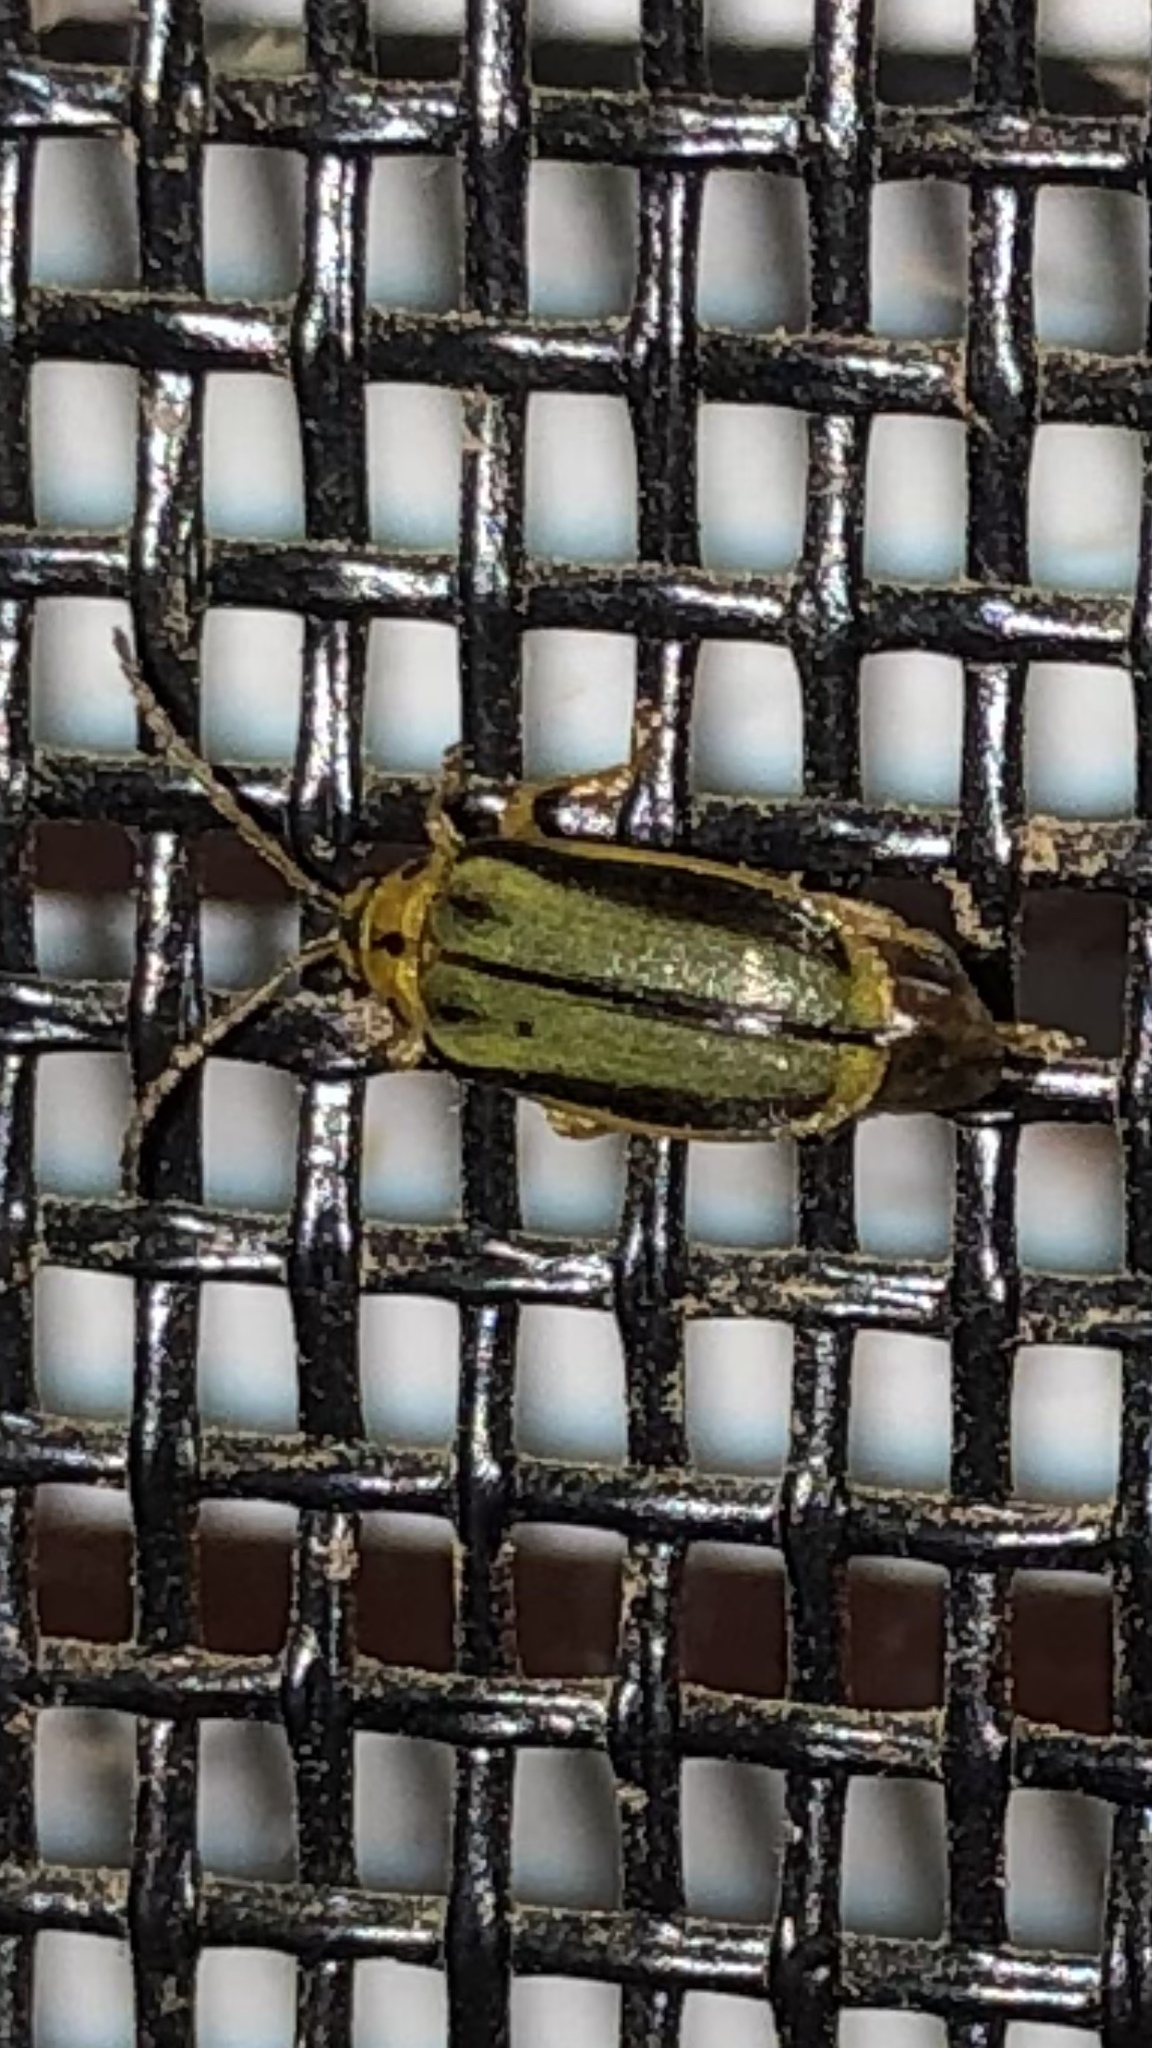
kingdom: Animalia
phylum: Arthropoda
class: Insecta
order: Coleoptera
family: Chrysomelidae
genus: Xanthogaleruca
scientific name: Xanthogaleruca luteola
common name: Elm leaf beetle
